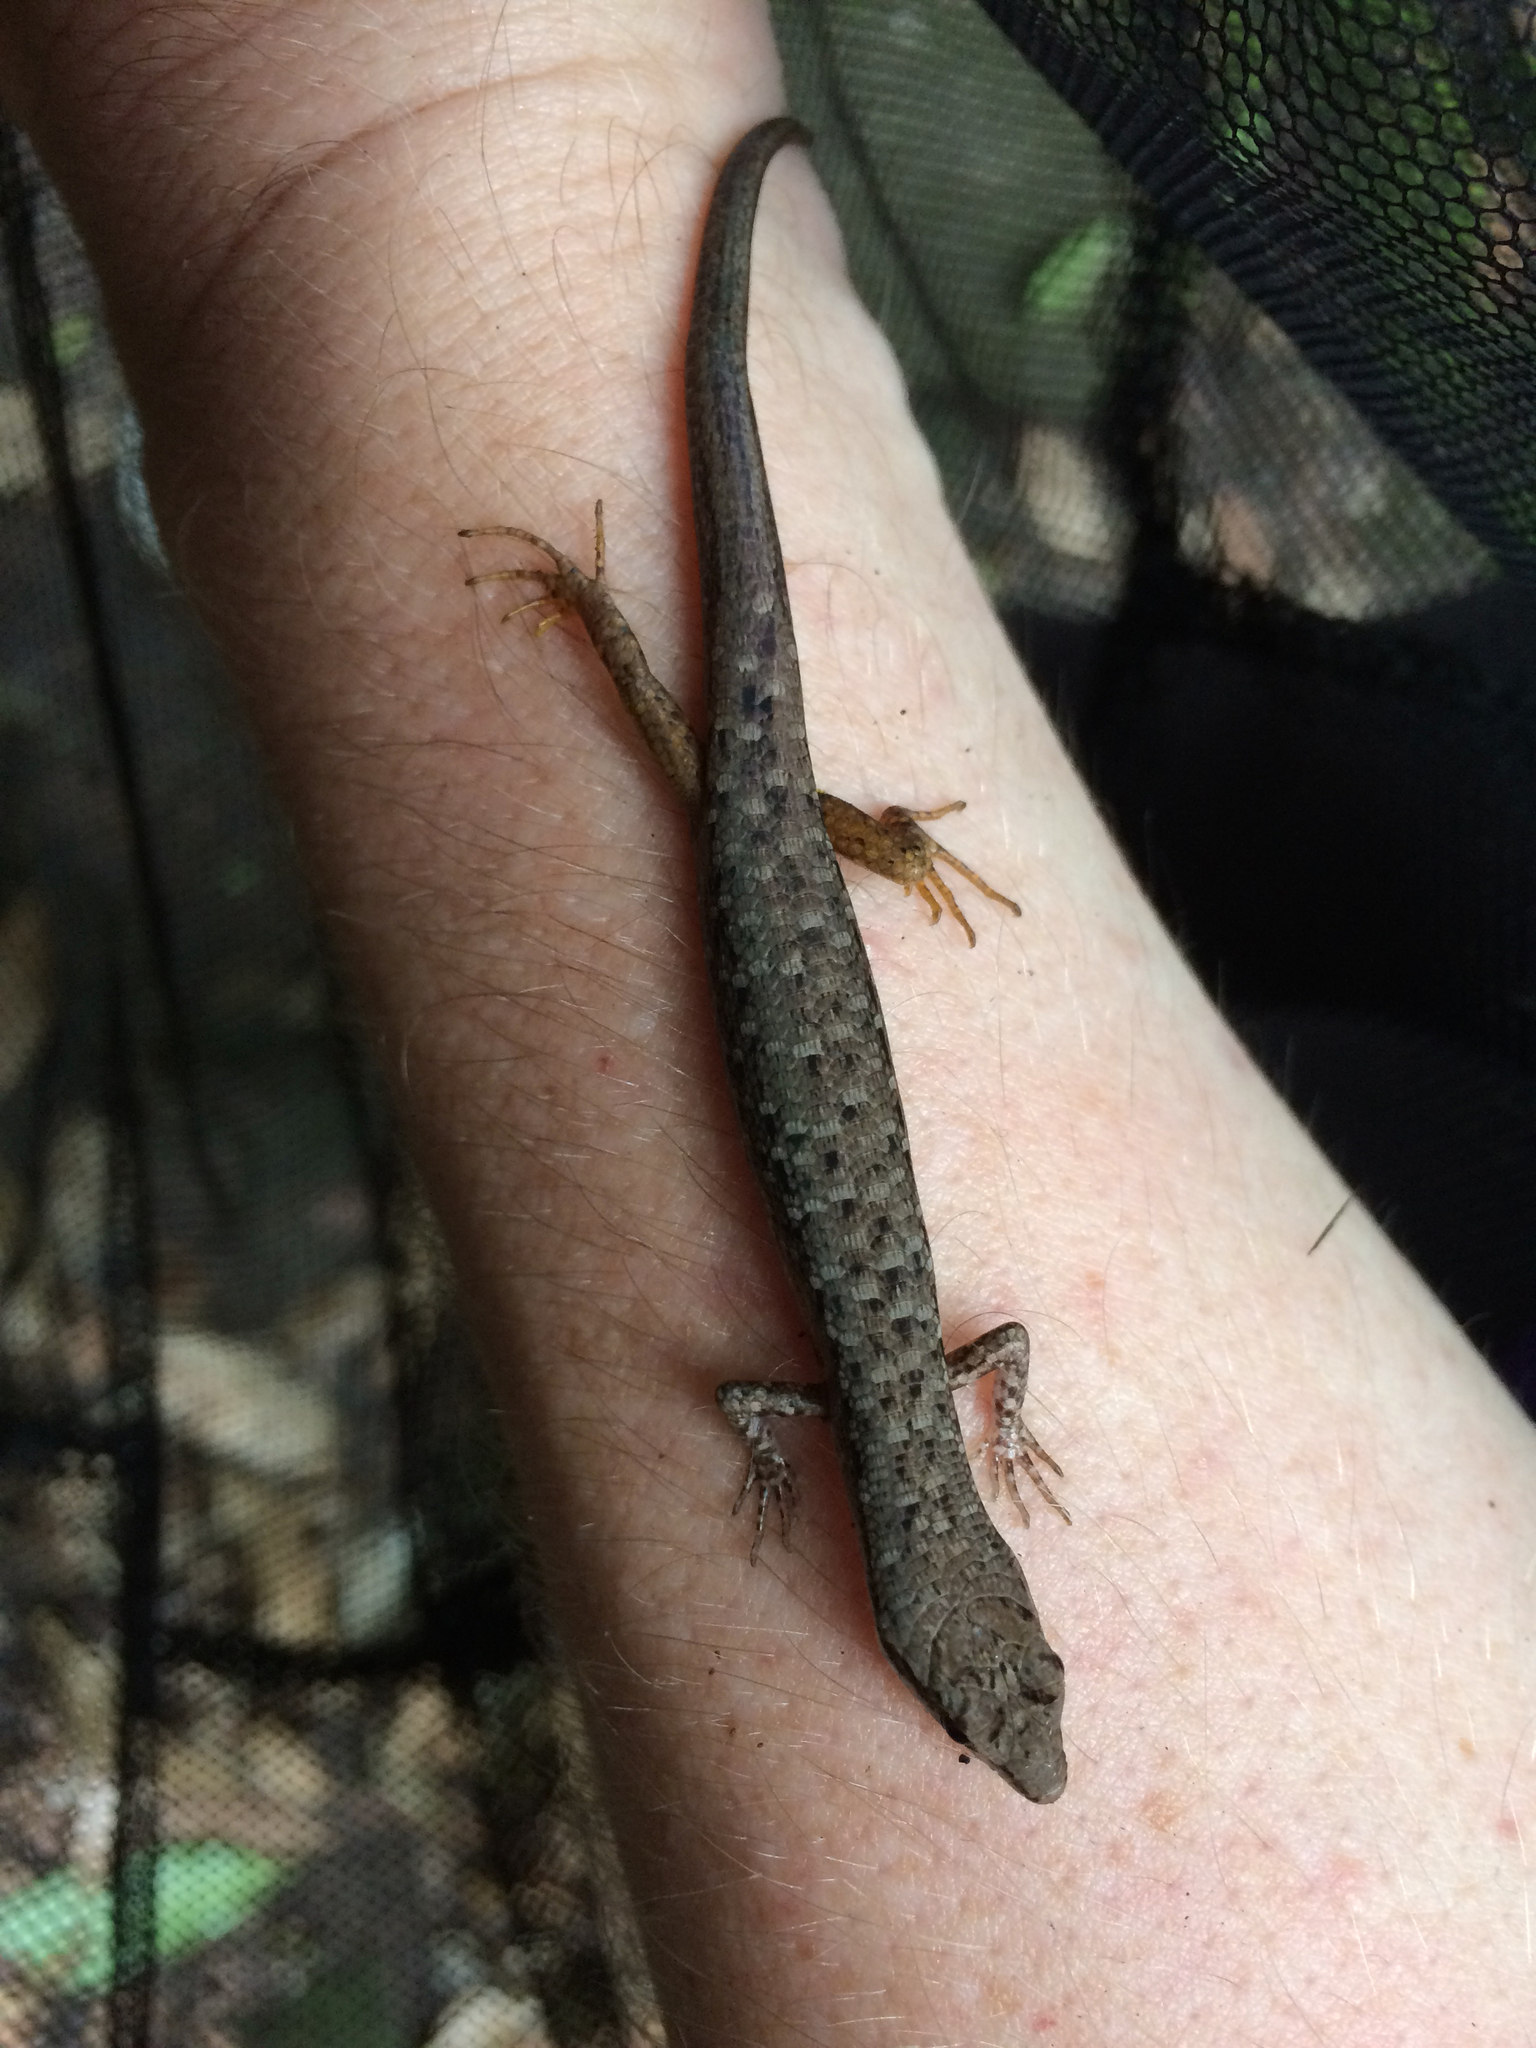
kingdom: Animalia
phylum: Chordata
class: Squamata
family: Scincidae
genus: Saproscincus
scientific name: Saproscincus spectabilis
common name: Gully shadeskink
